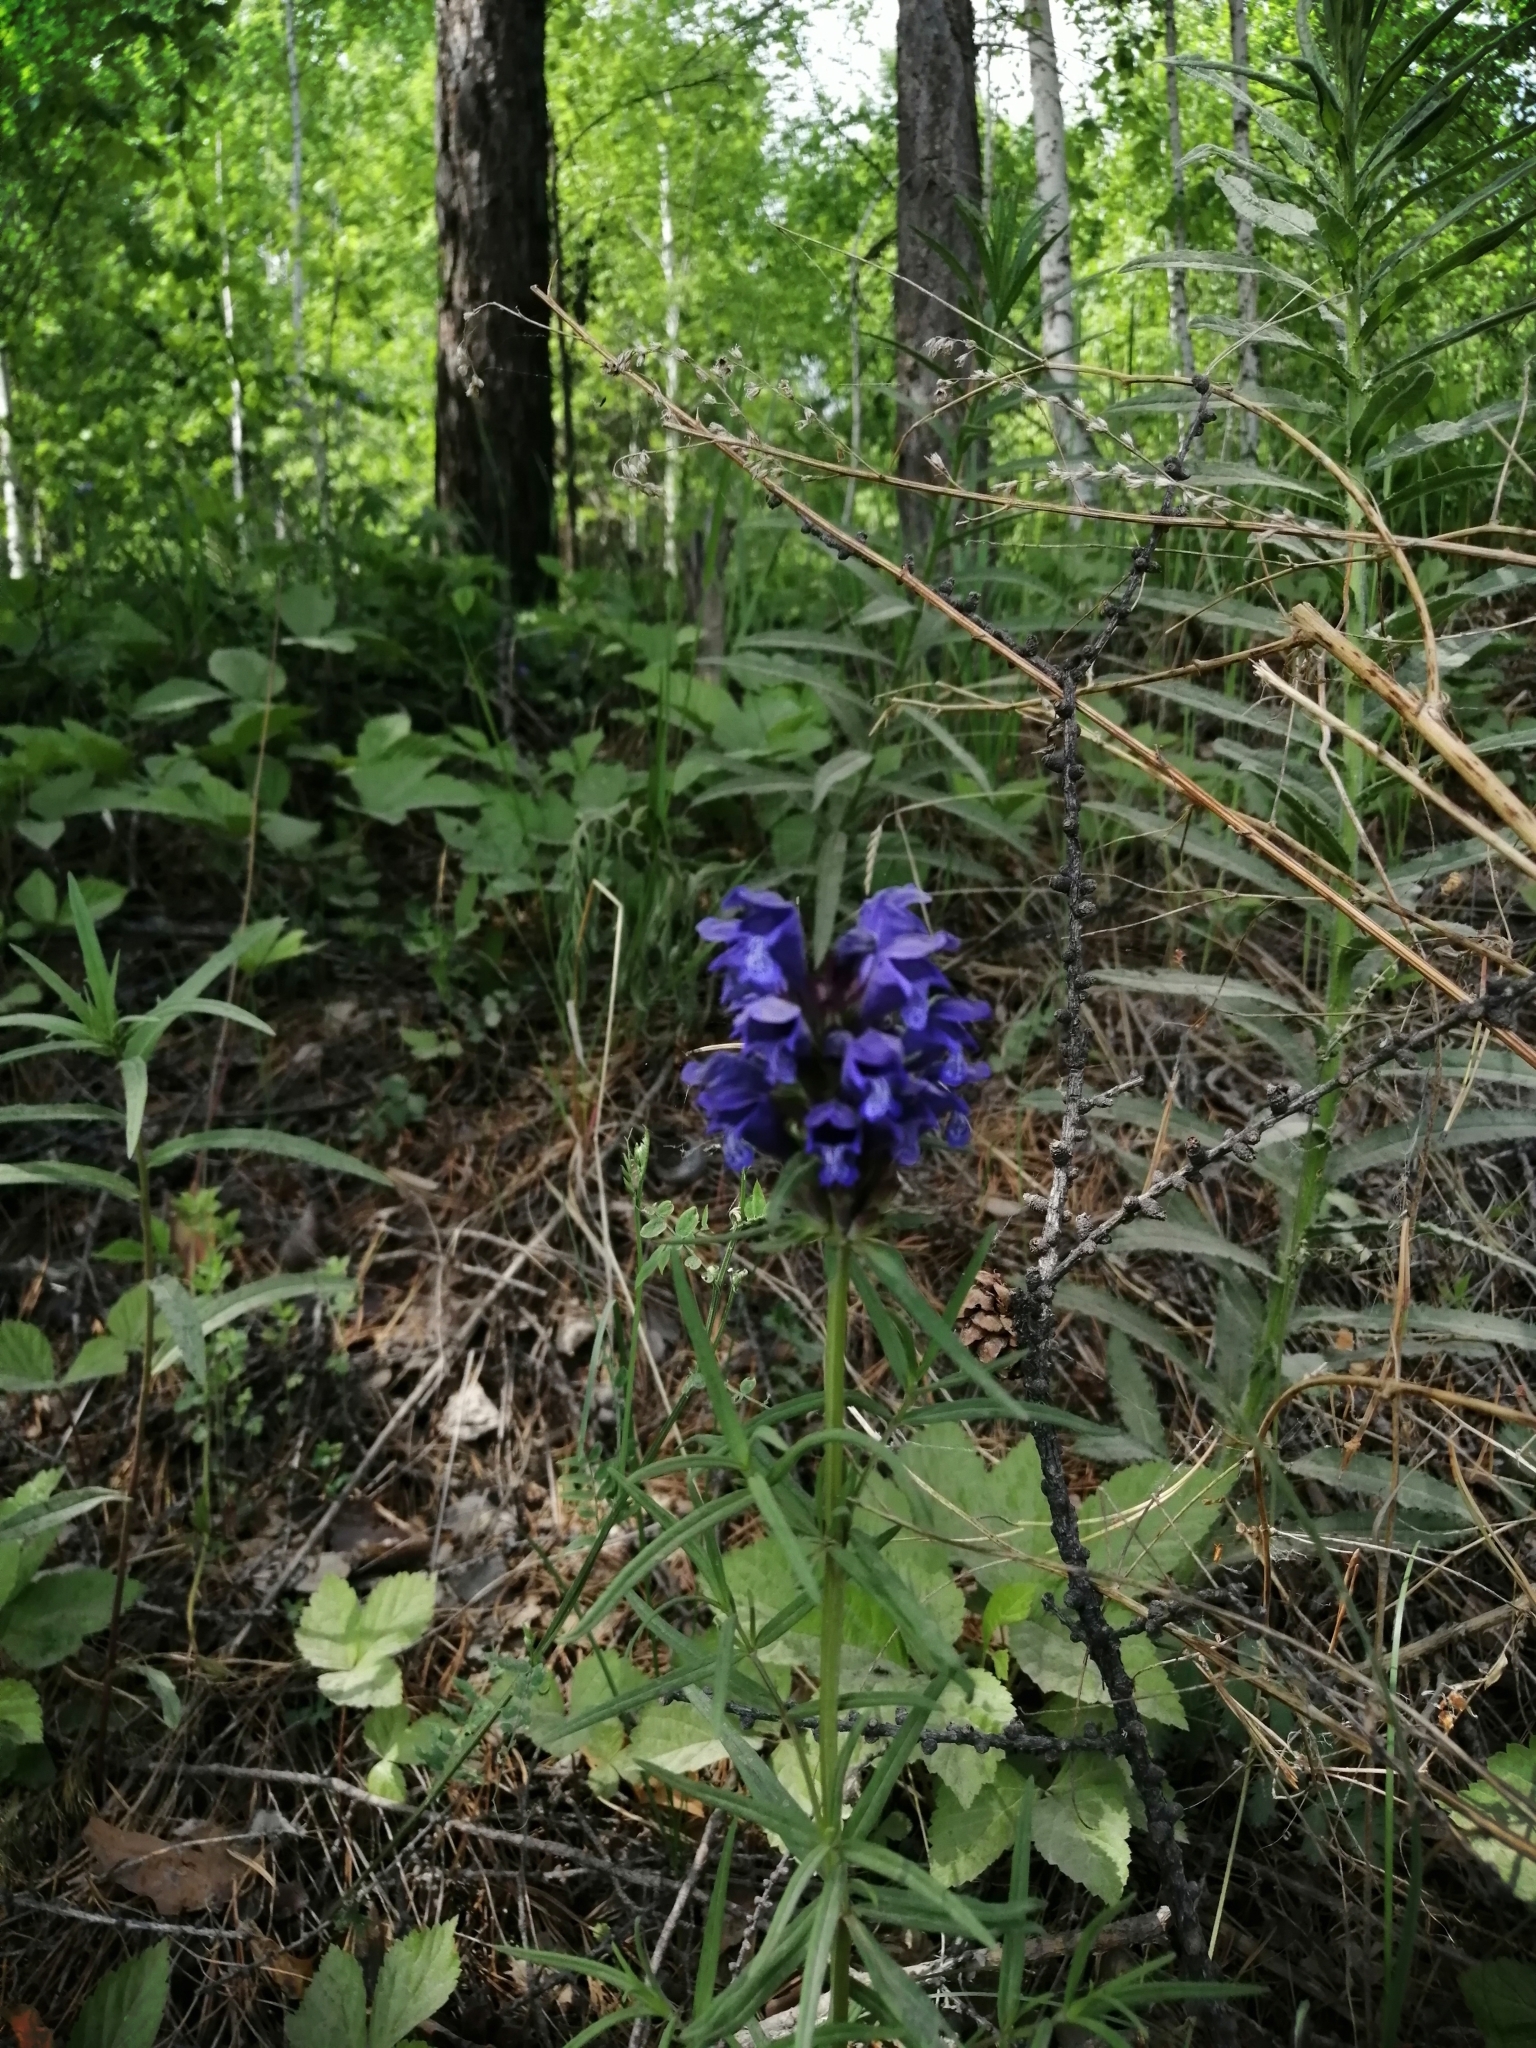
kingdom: Plantae
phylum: Tracheophyta
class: Magnoliopsida
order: Lamiales
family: Lamiaceae
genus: Dracocephalum
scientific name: Dracocephalum ruyschiana
